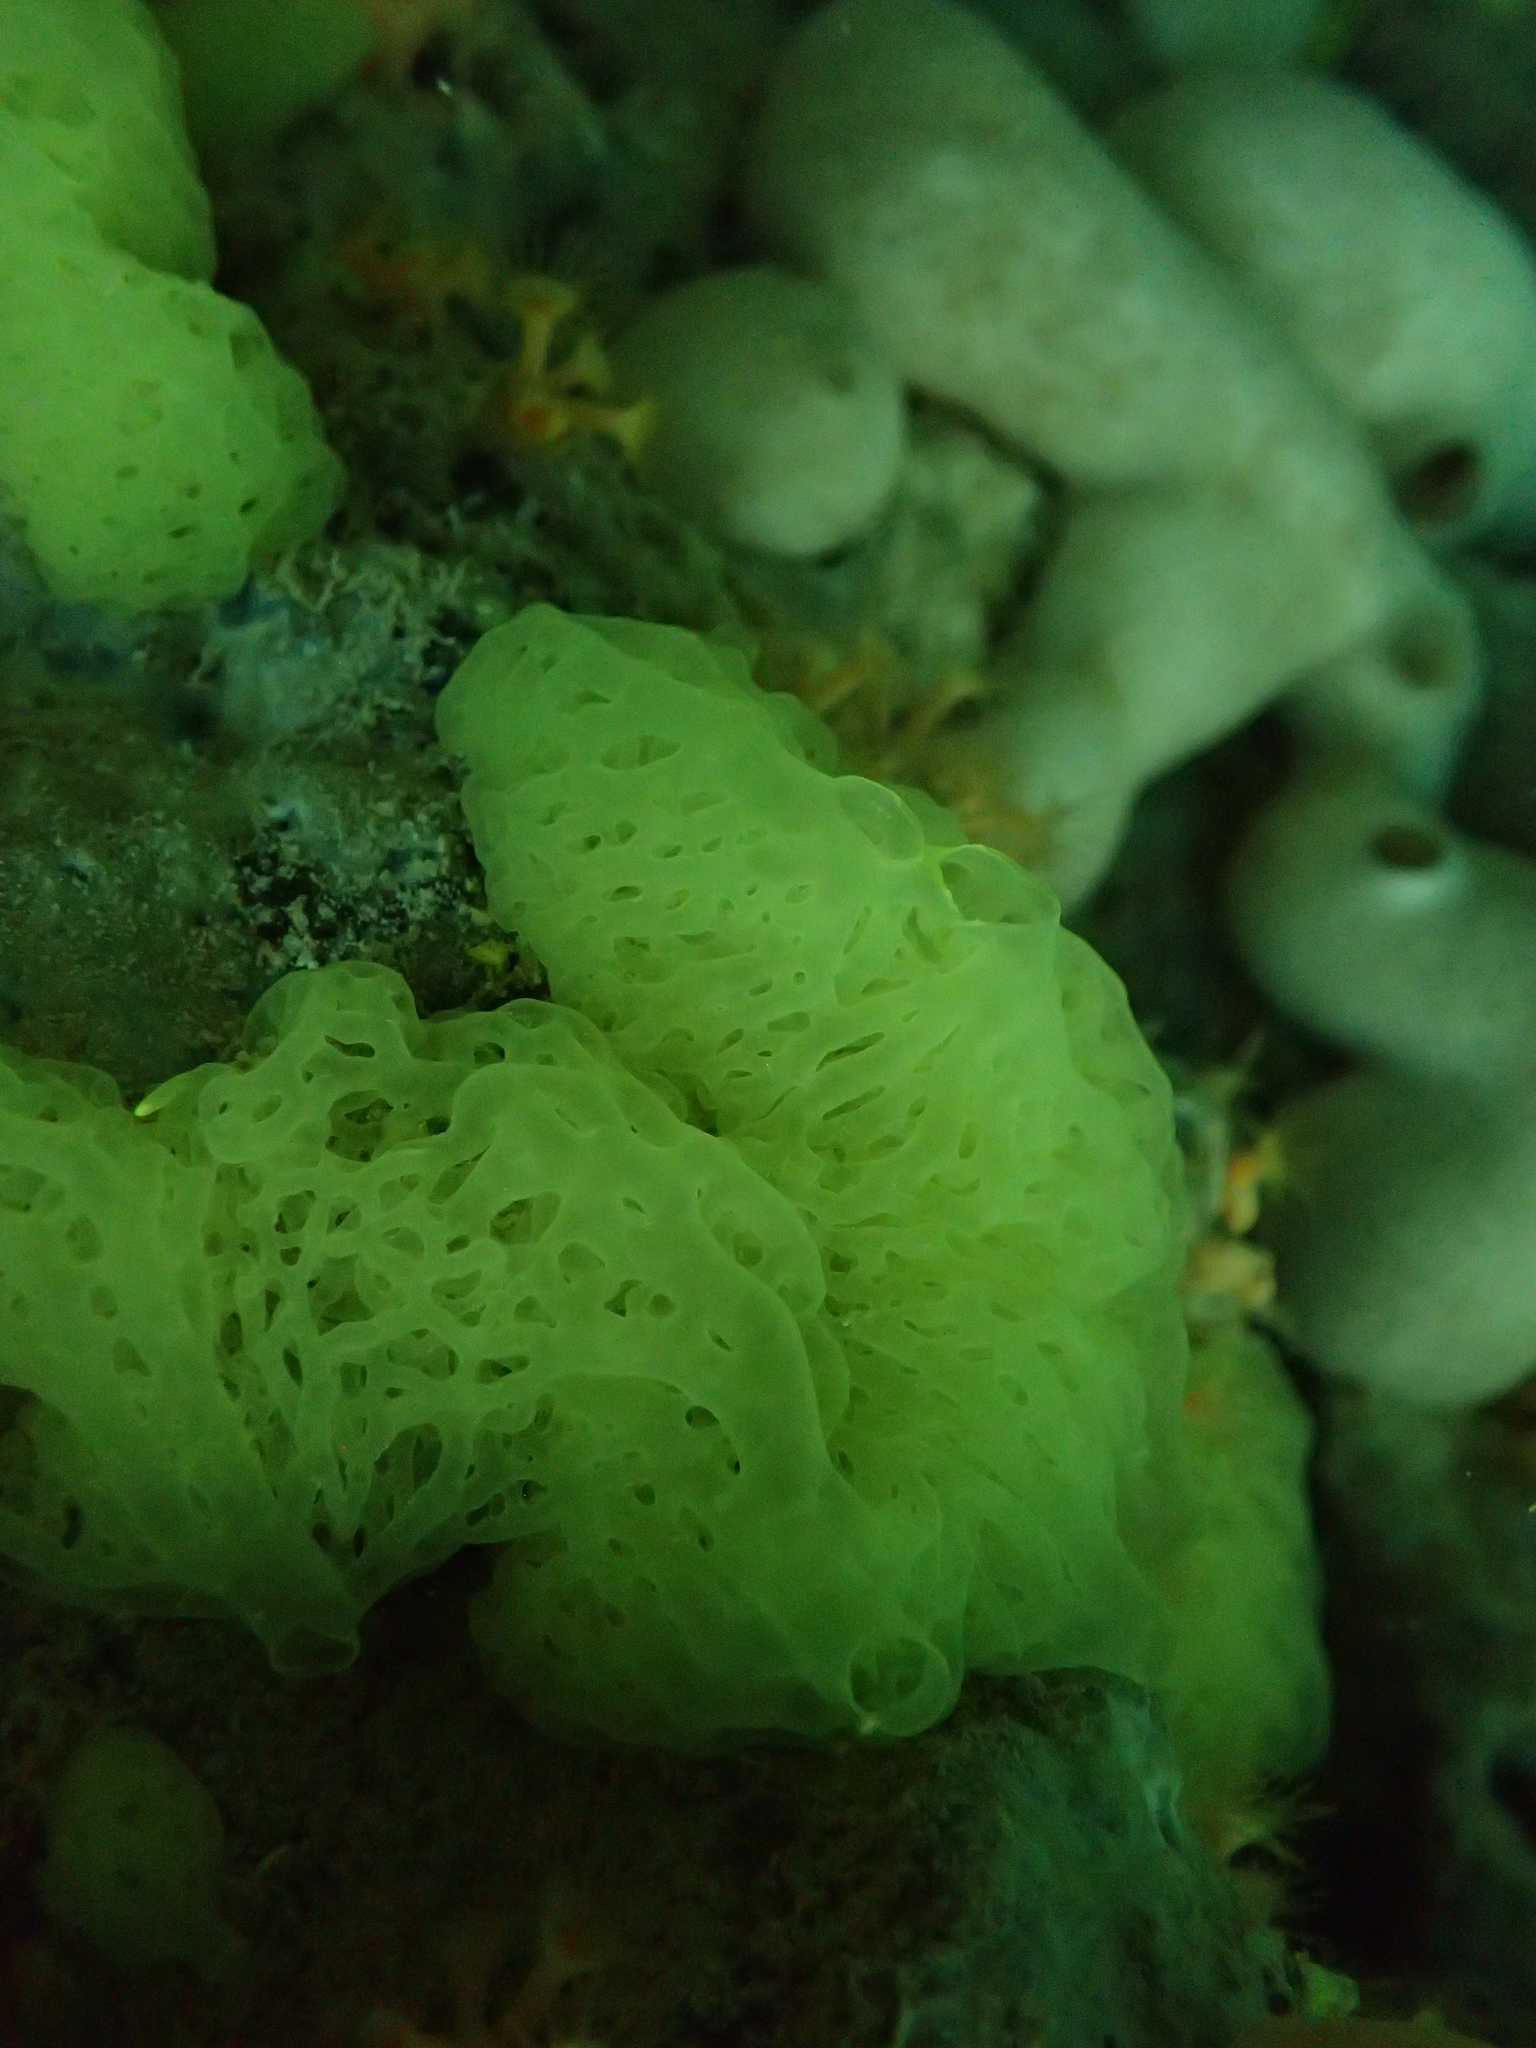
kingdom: Animalia
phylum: Porifera
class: Calcarea
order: Clathrinida
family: Clathrinidae
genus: Clathrina
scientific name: Clathrina clathrus
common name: Yellow clathrina
